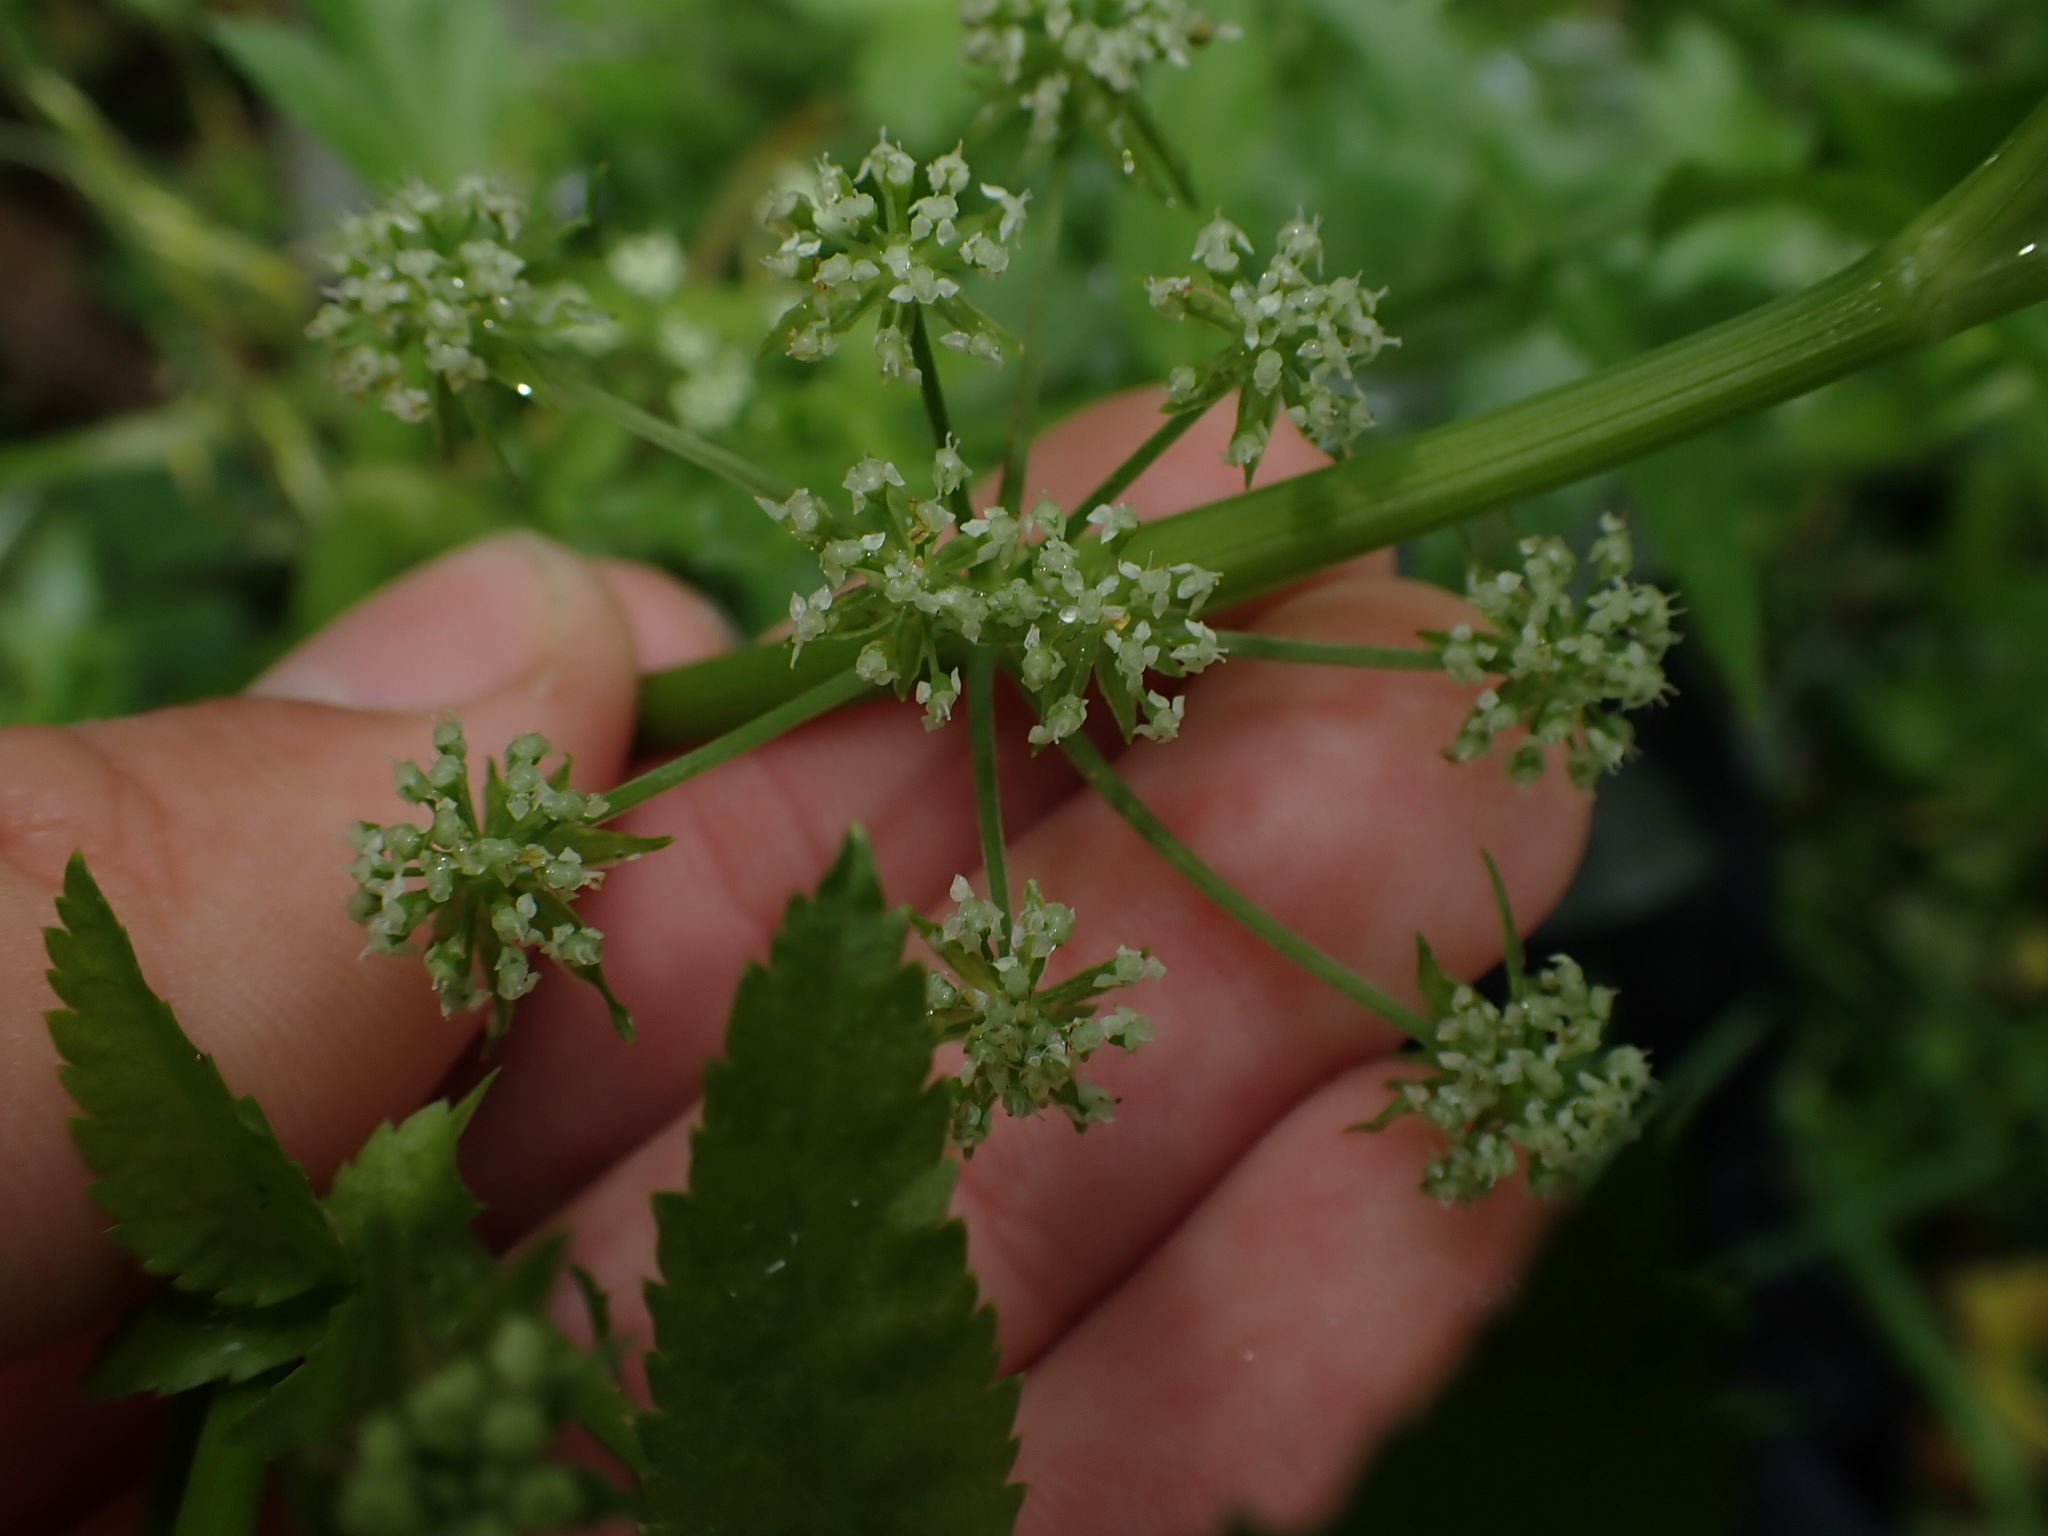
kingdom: Plantae
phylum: Tracheophyta
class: Magnoliopsida
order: Apiales
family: Apiaceae
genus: Helosciadium
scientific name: Helosciadium nodiflorum
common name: Fool's-watercress
